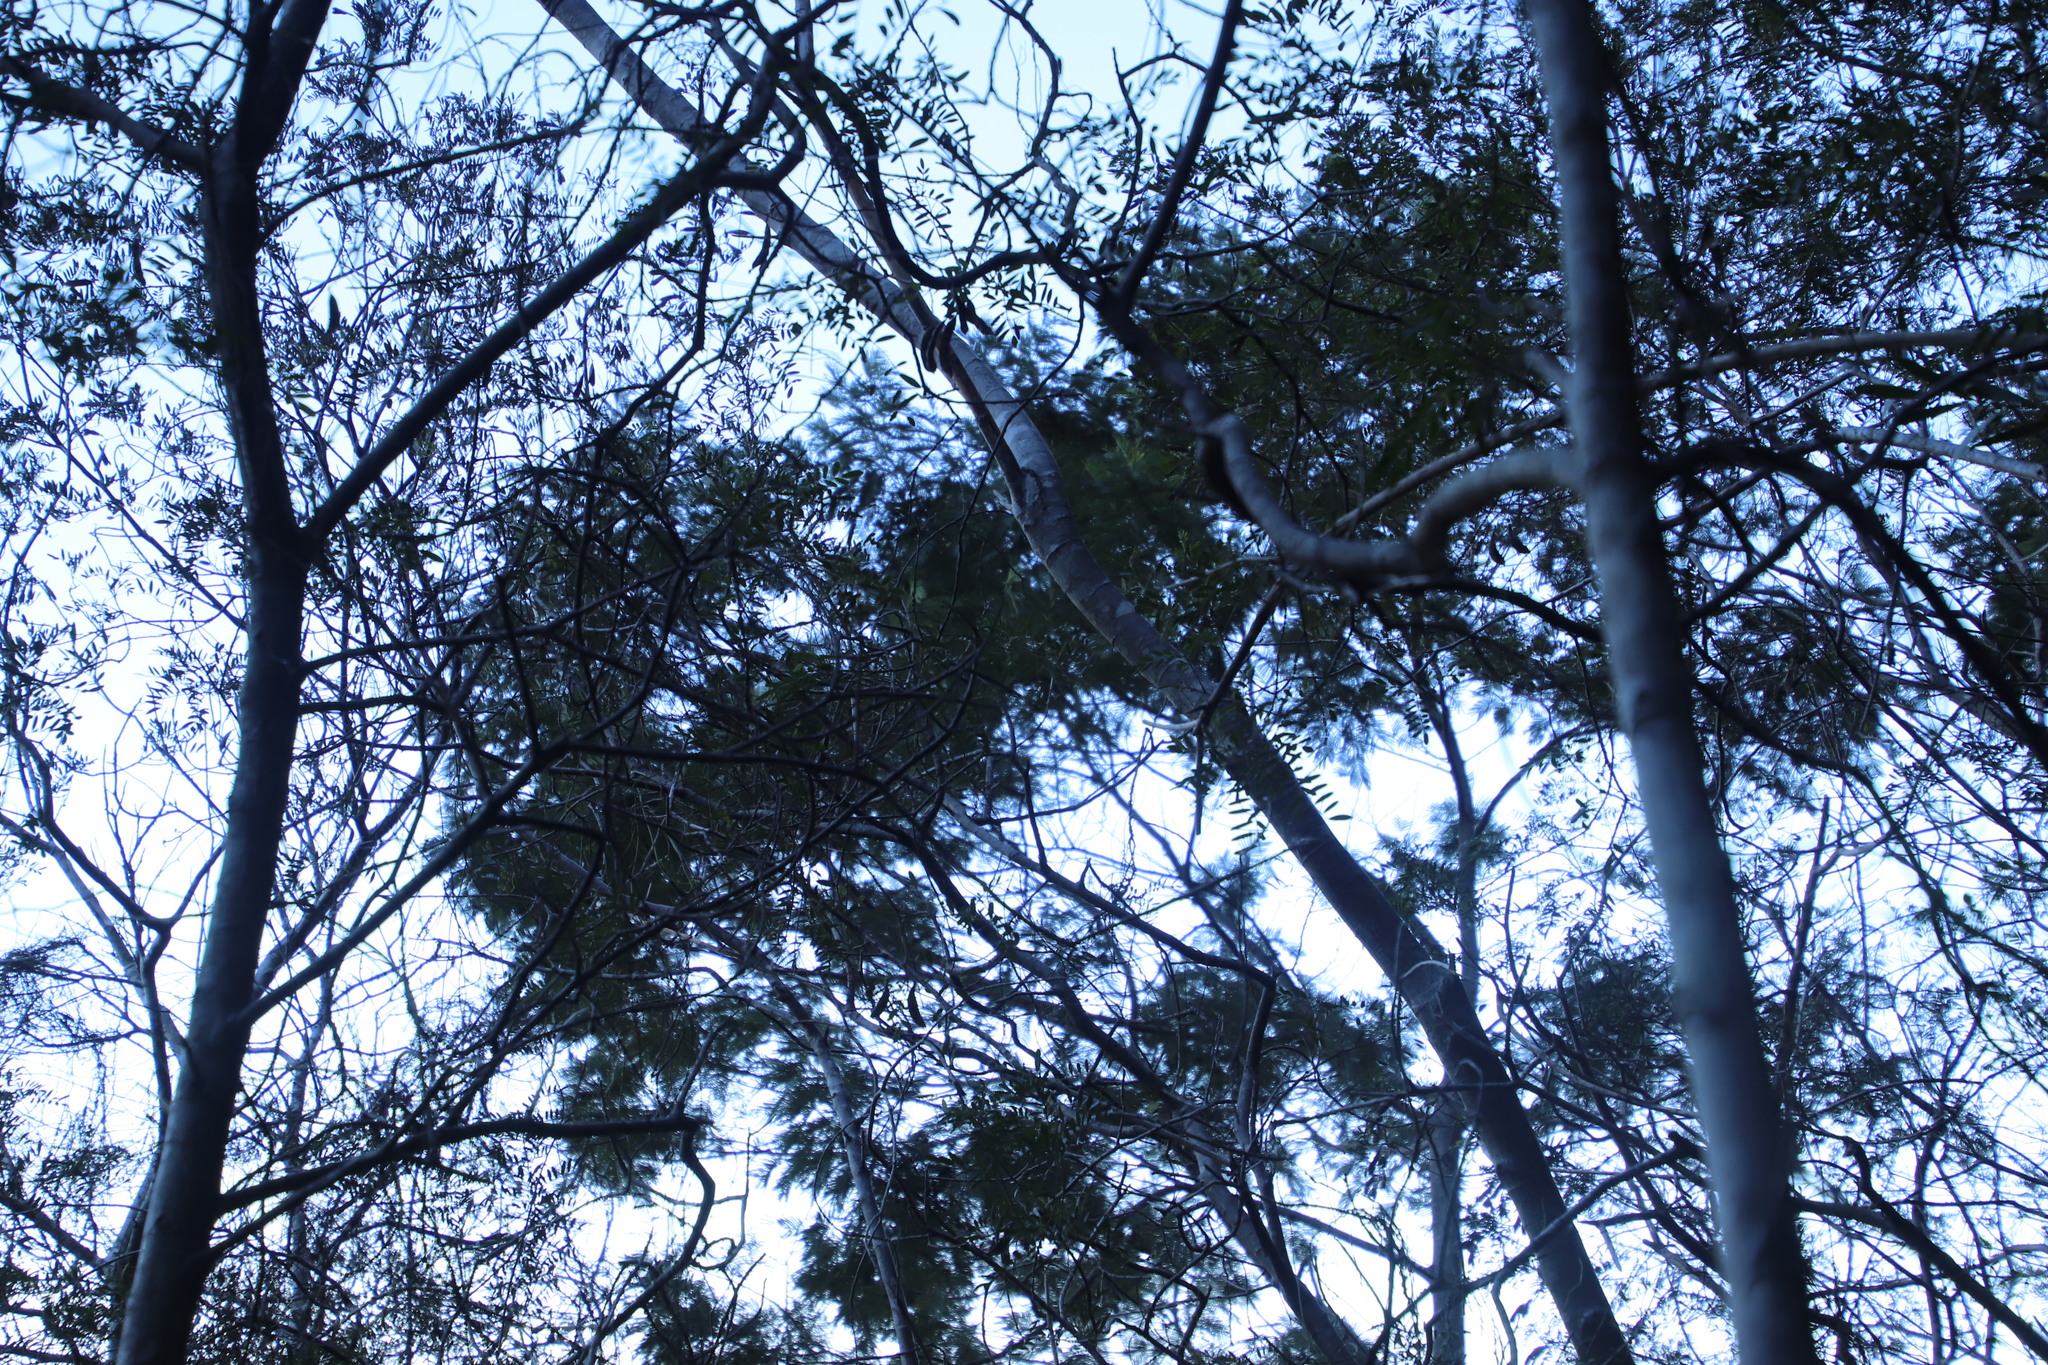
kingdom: Plantae
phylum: Tracheophyta
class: Magnoliopsida
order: Fabales
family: Fabaceae
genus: Acacia
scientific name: Acacia mearnsii
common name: Black wattle
